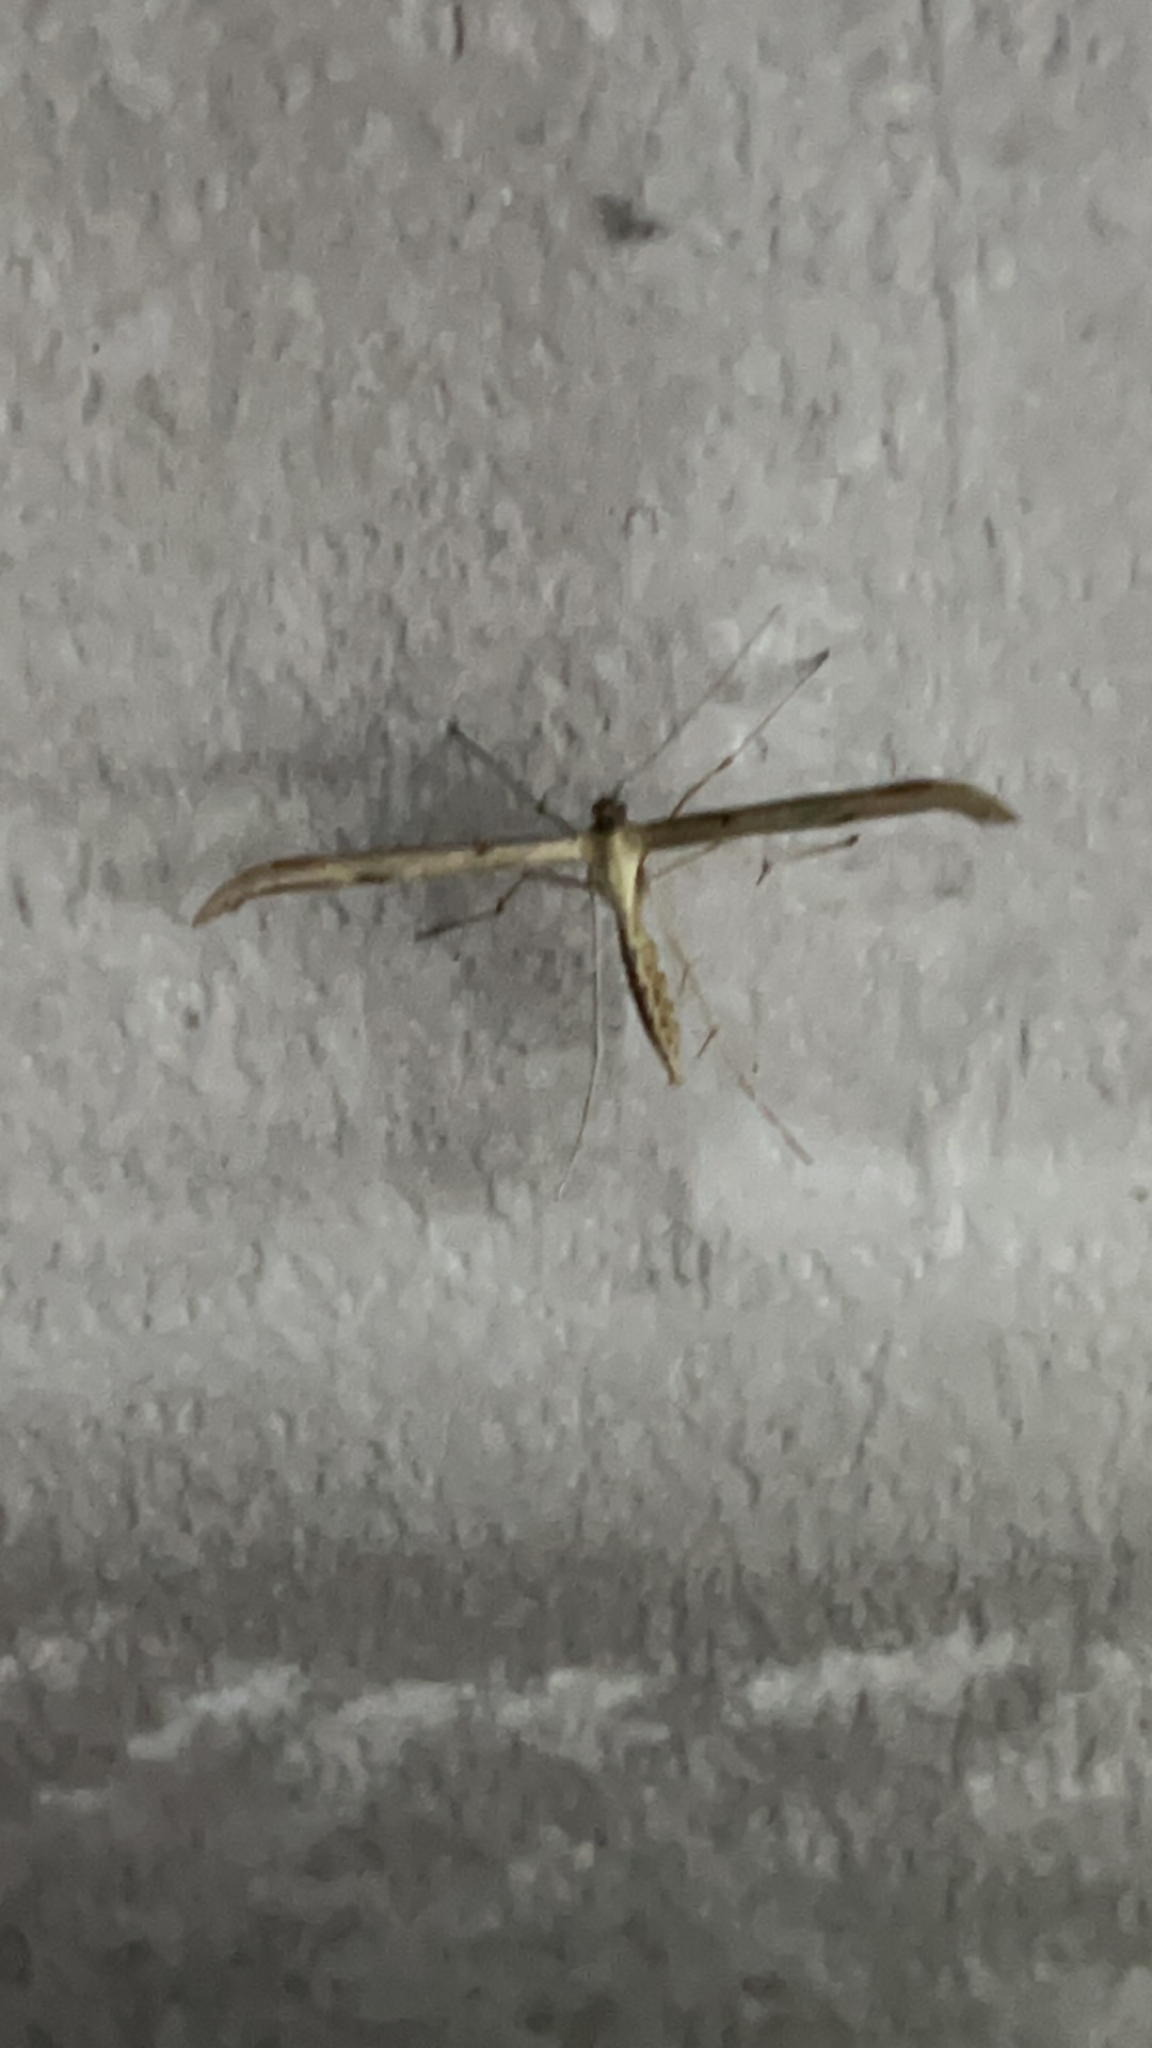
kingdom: Animalia
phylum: Arthropoda
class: Insecta
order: Lepidoptera
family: Pterophoridae
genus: Emmelina
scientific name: Emmelina monodactyla
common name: Common plume
